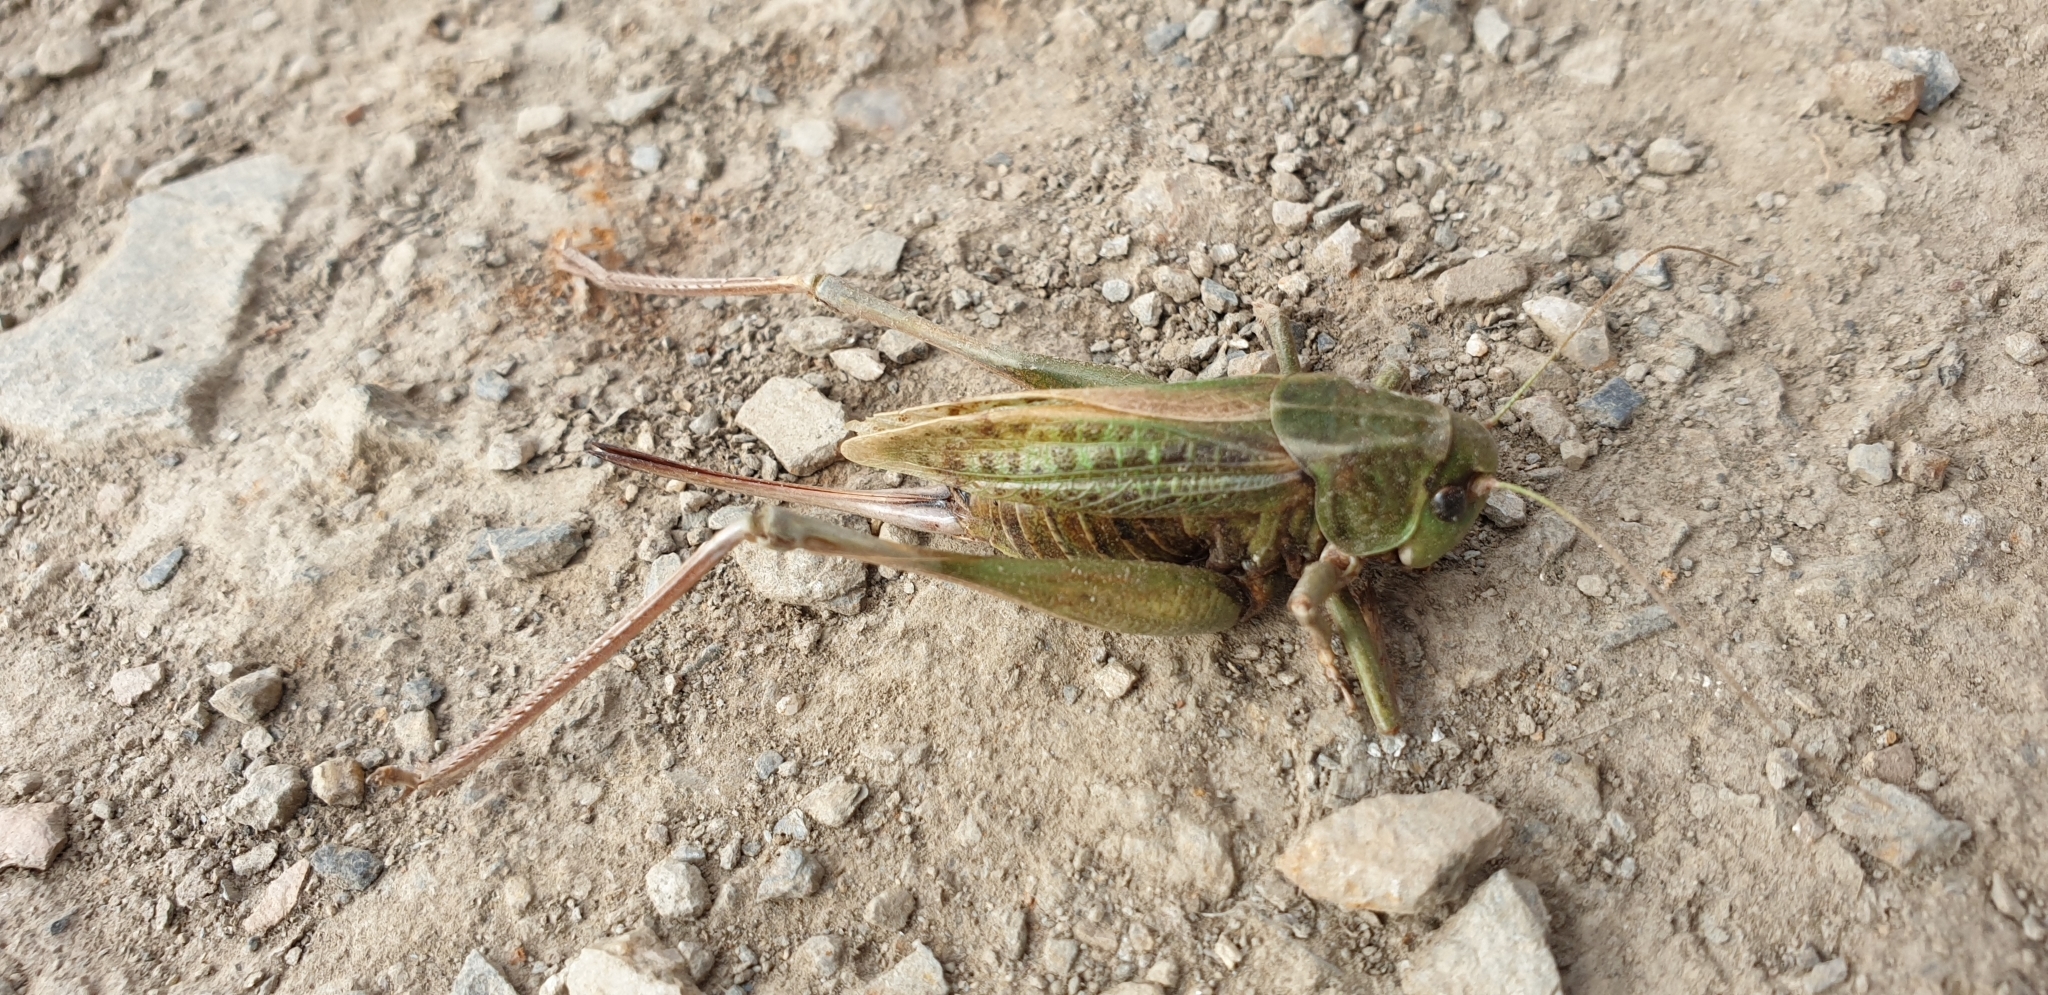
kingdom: Animalia
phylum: Arthropoda
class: Insecta
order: Orthoptera
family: Tettigoniidae
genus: Decticus
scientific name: Decticus verrucivorus
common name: Wart-biter
